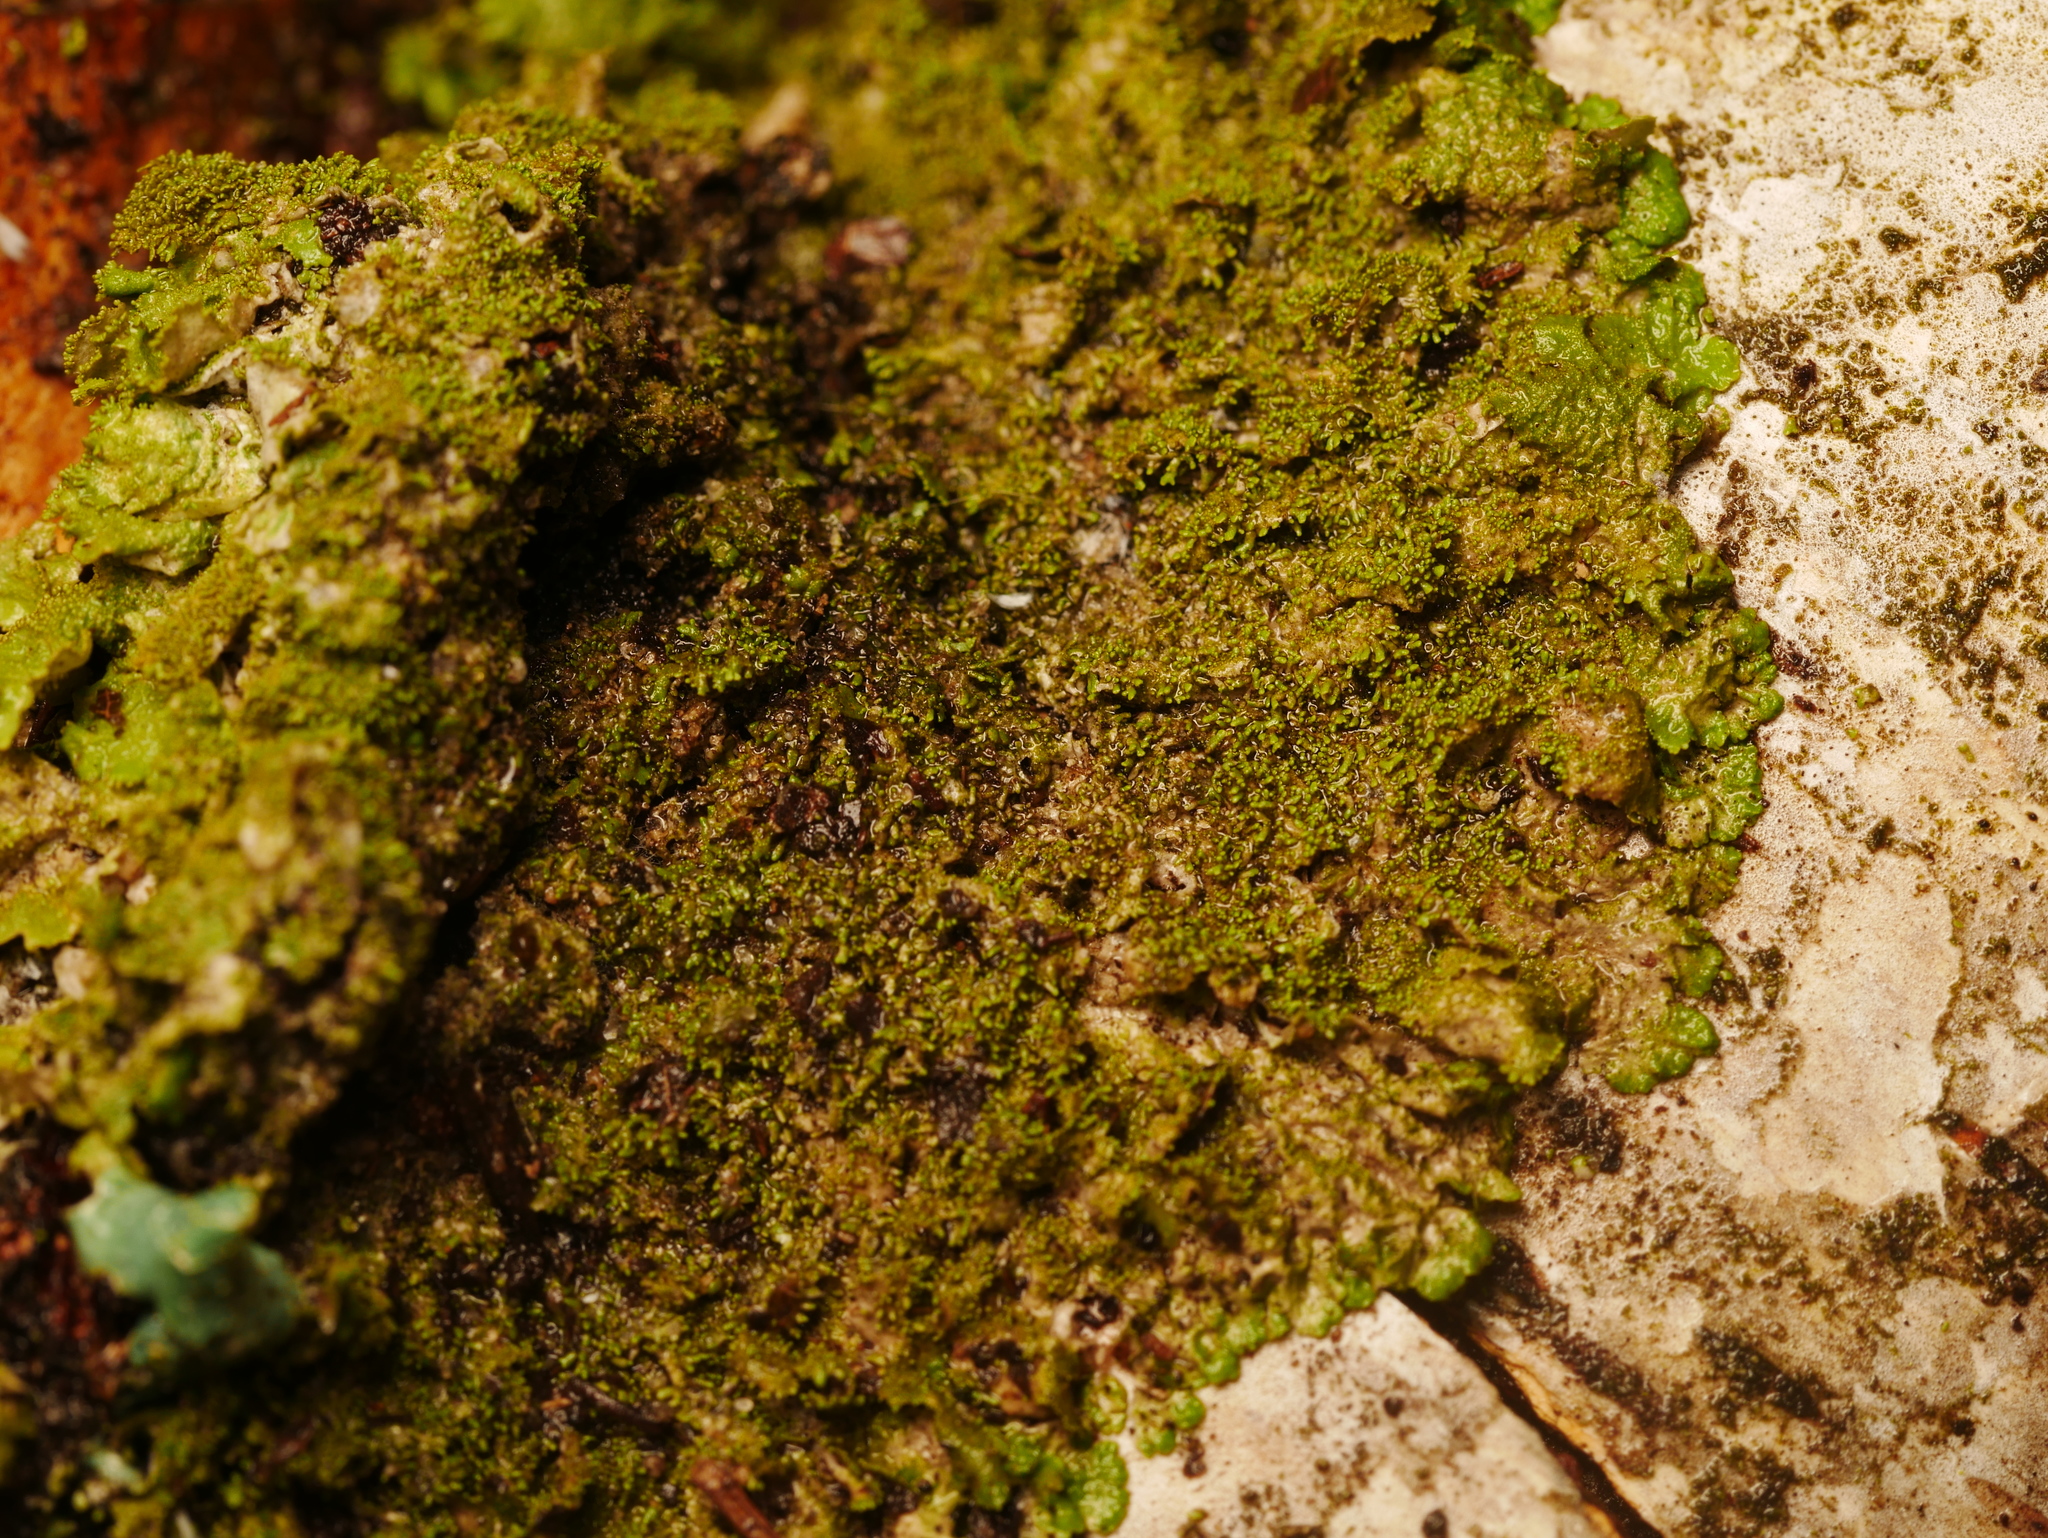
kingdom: Fungi
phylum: Ascomycota
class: Lecanoromycetes
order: Lecanorales
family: Parmeliaceae
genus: Melanohalea
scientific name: Melanohalea exasperatula
